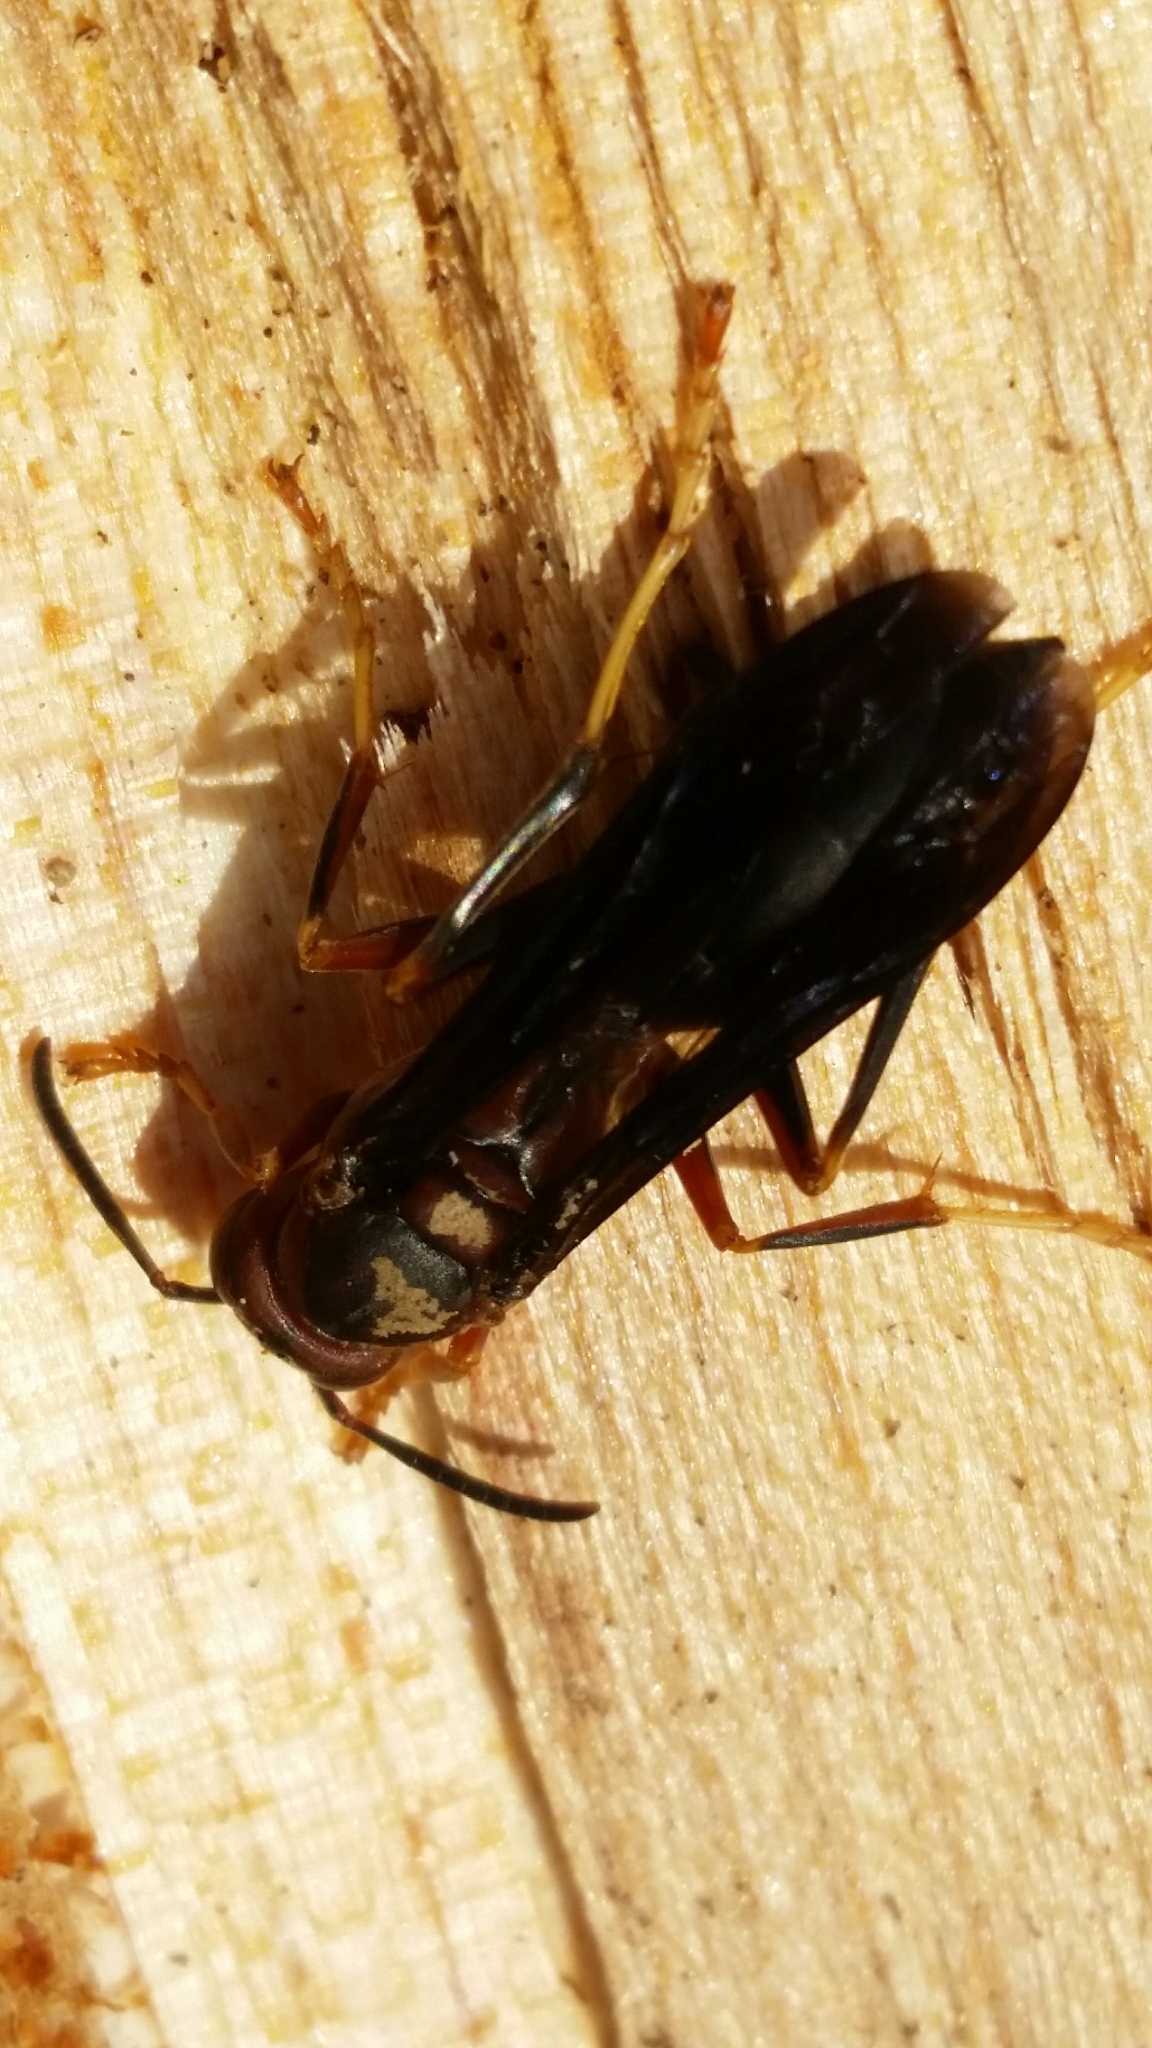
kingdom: Animalia
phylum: Arthropoda
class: Insecta
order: Hymenoptera
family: Vespidae
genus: Fuscopolistes
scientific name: Fuscopolistes
